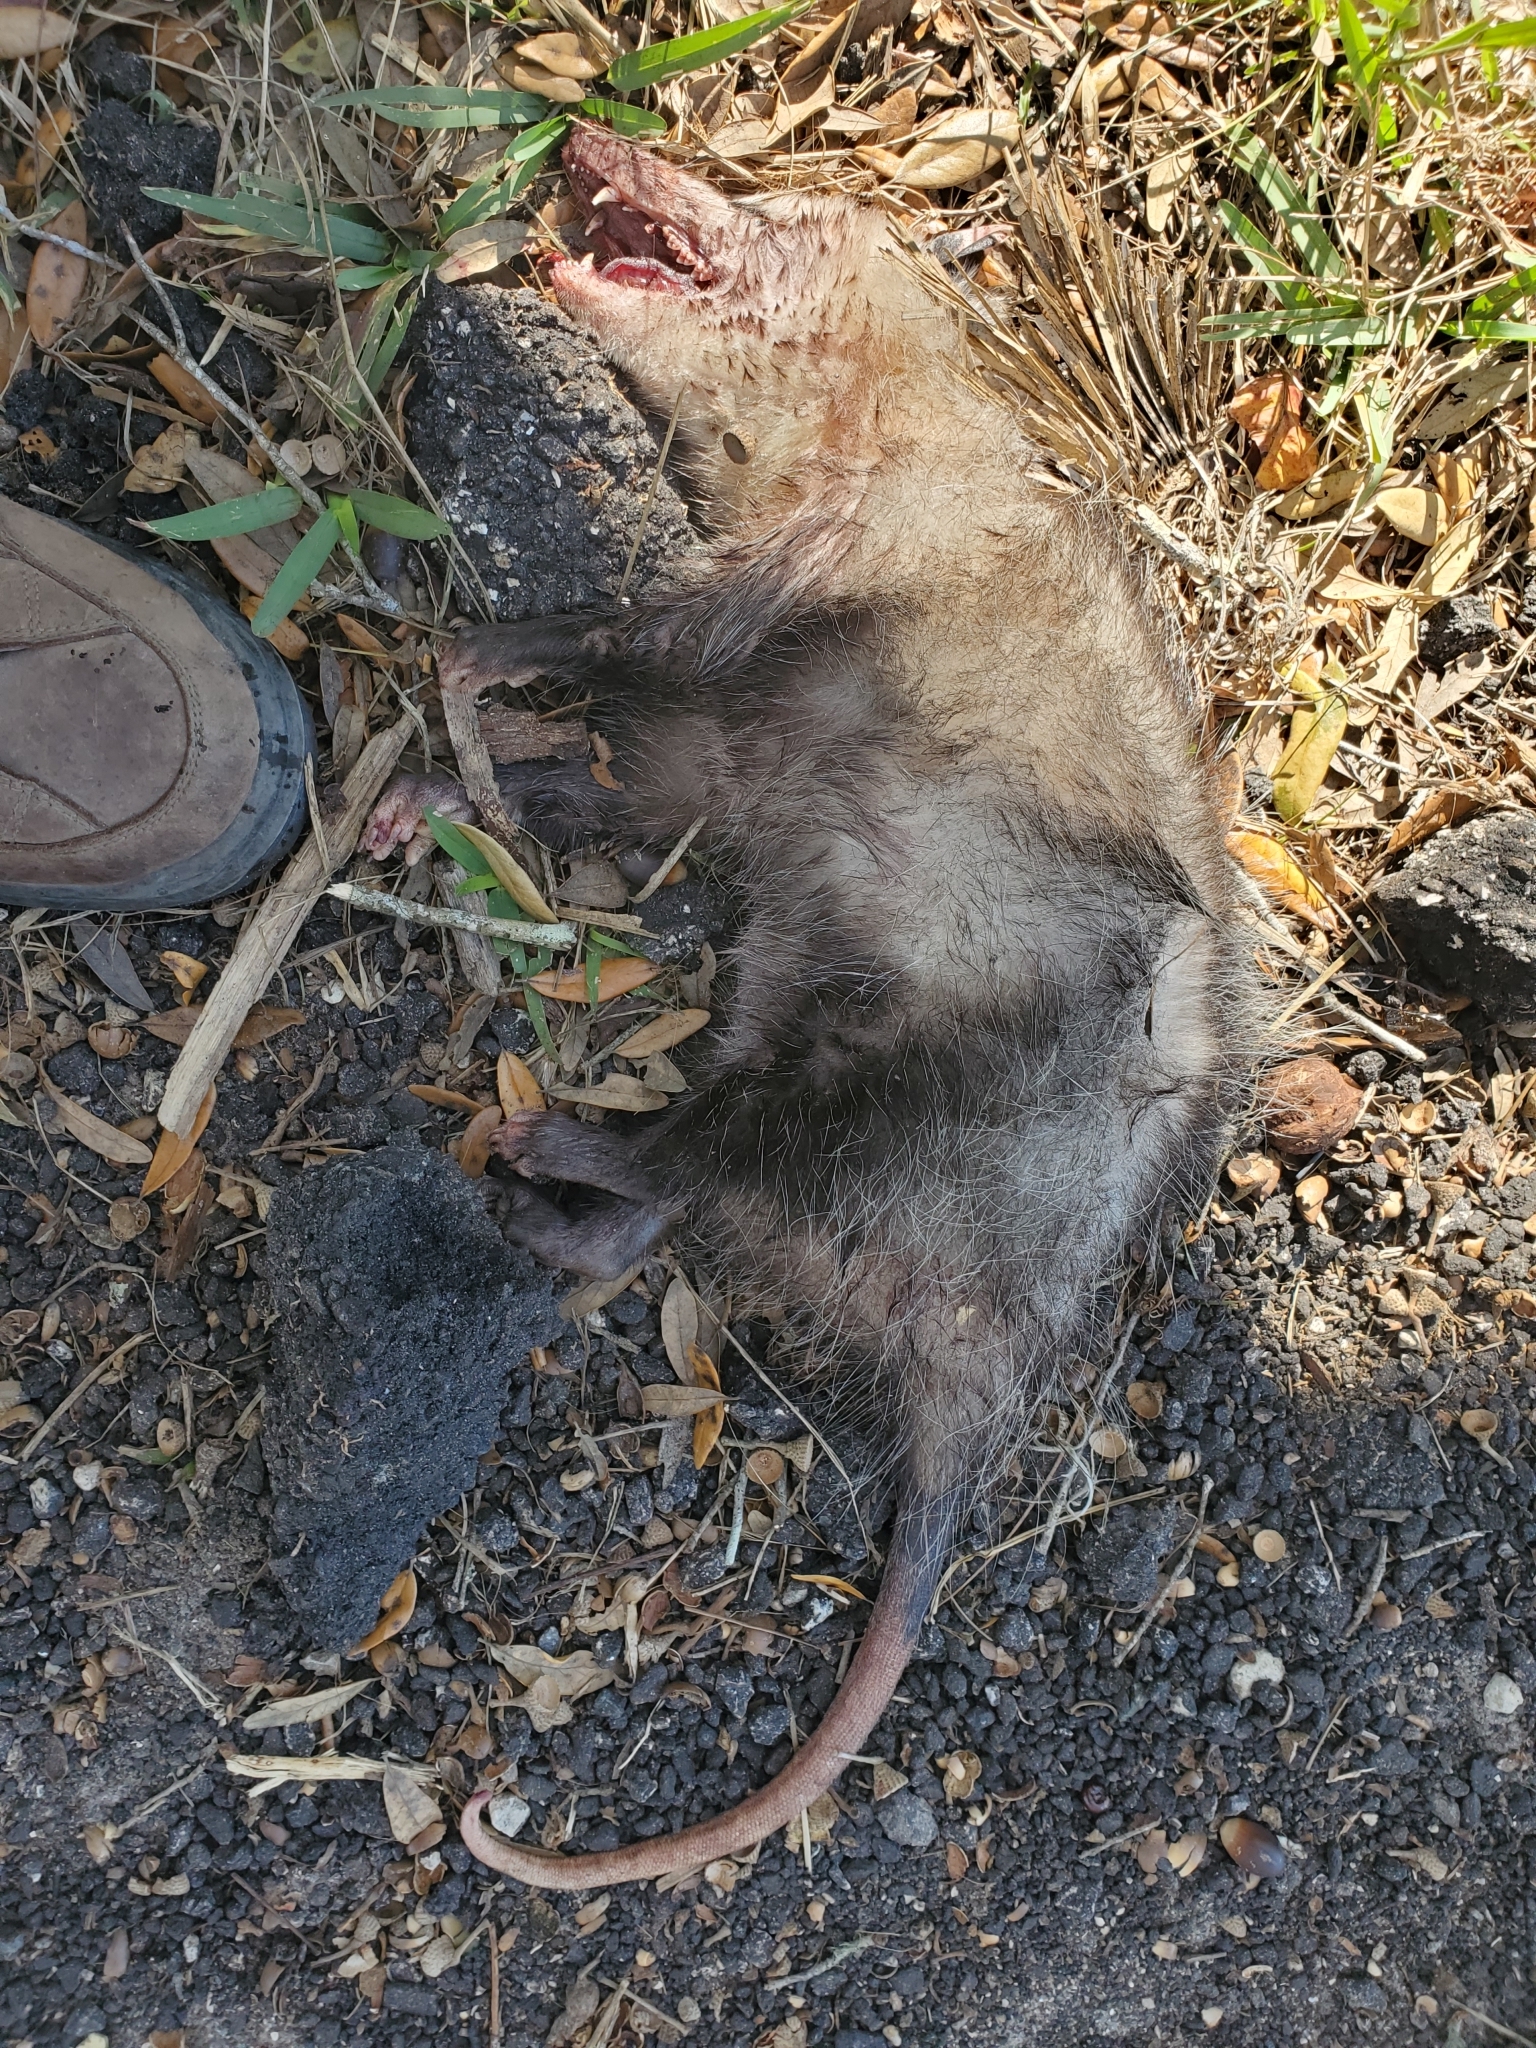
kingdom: Animalia
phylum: Chordata
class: Mammalia
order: Didelphimorphia
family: Didelphidae
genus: Didelphis
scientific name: Didelphis virginiana
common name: Virginia opossum
